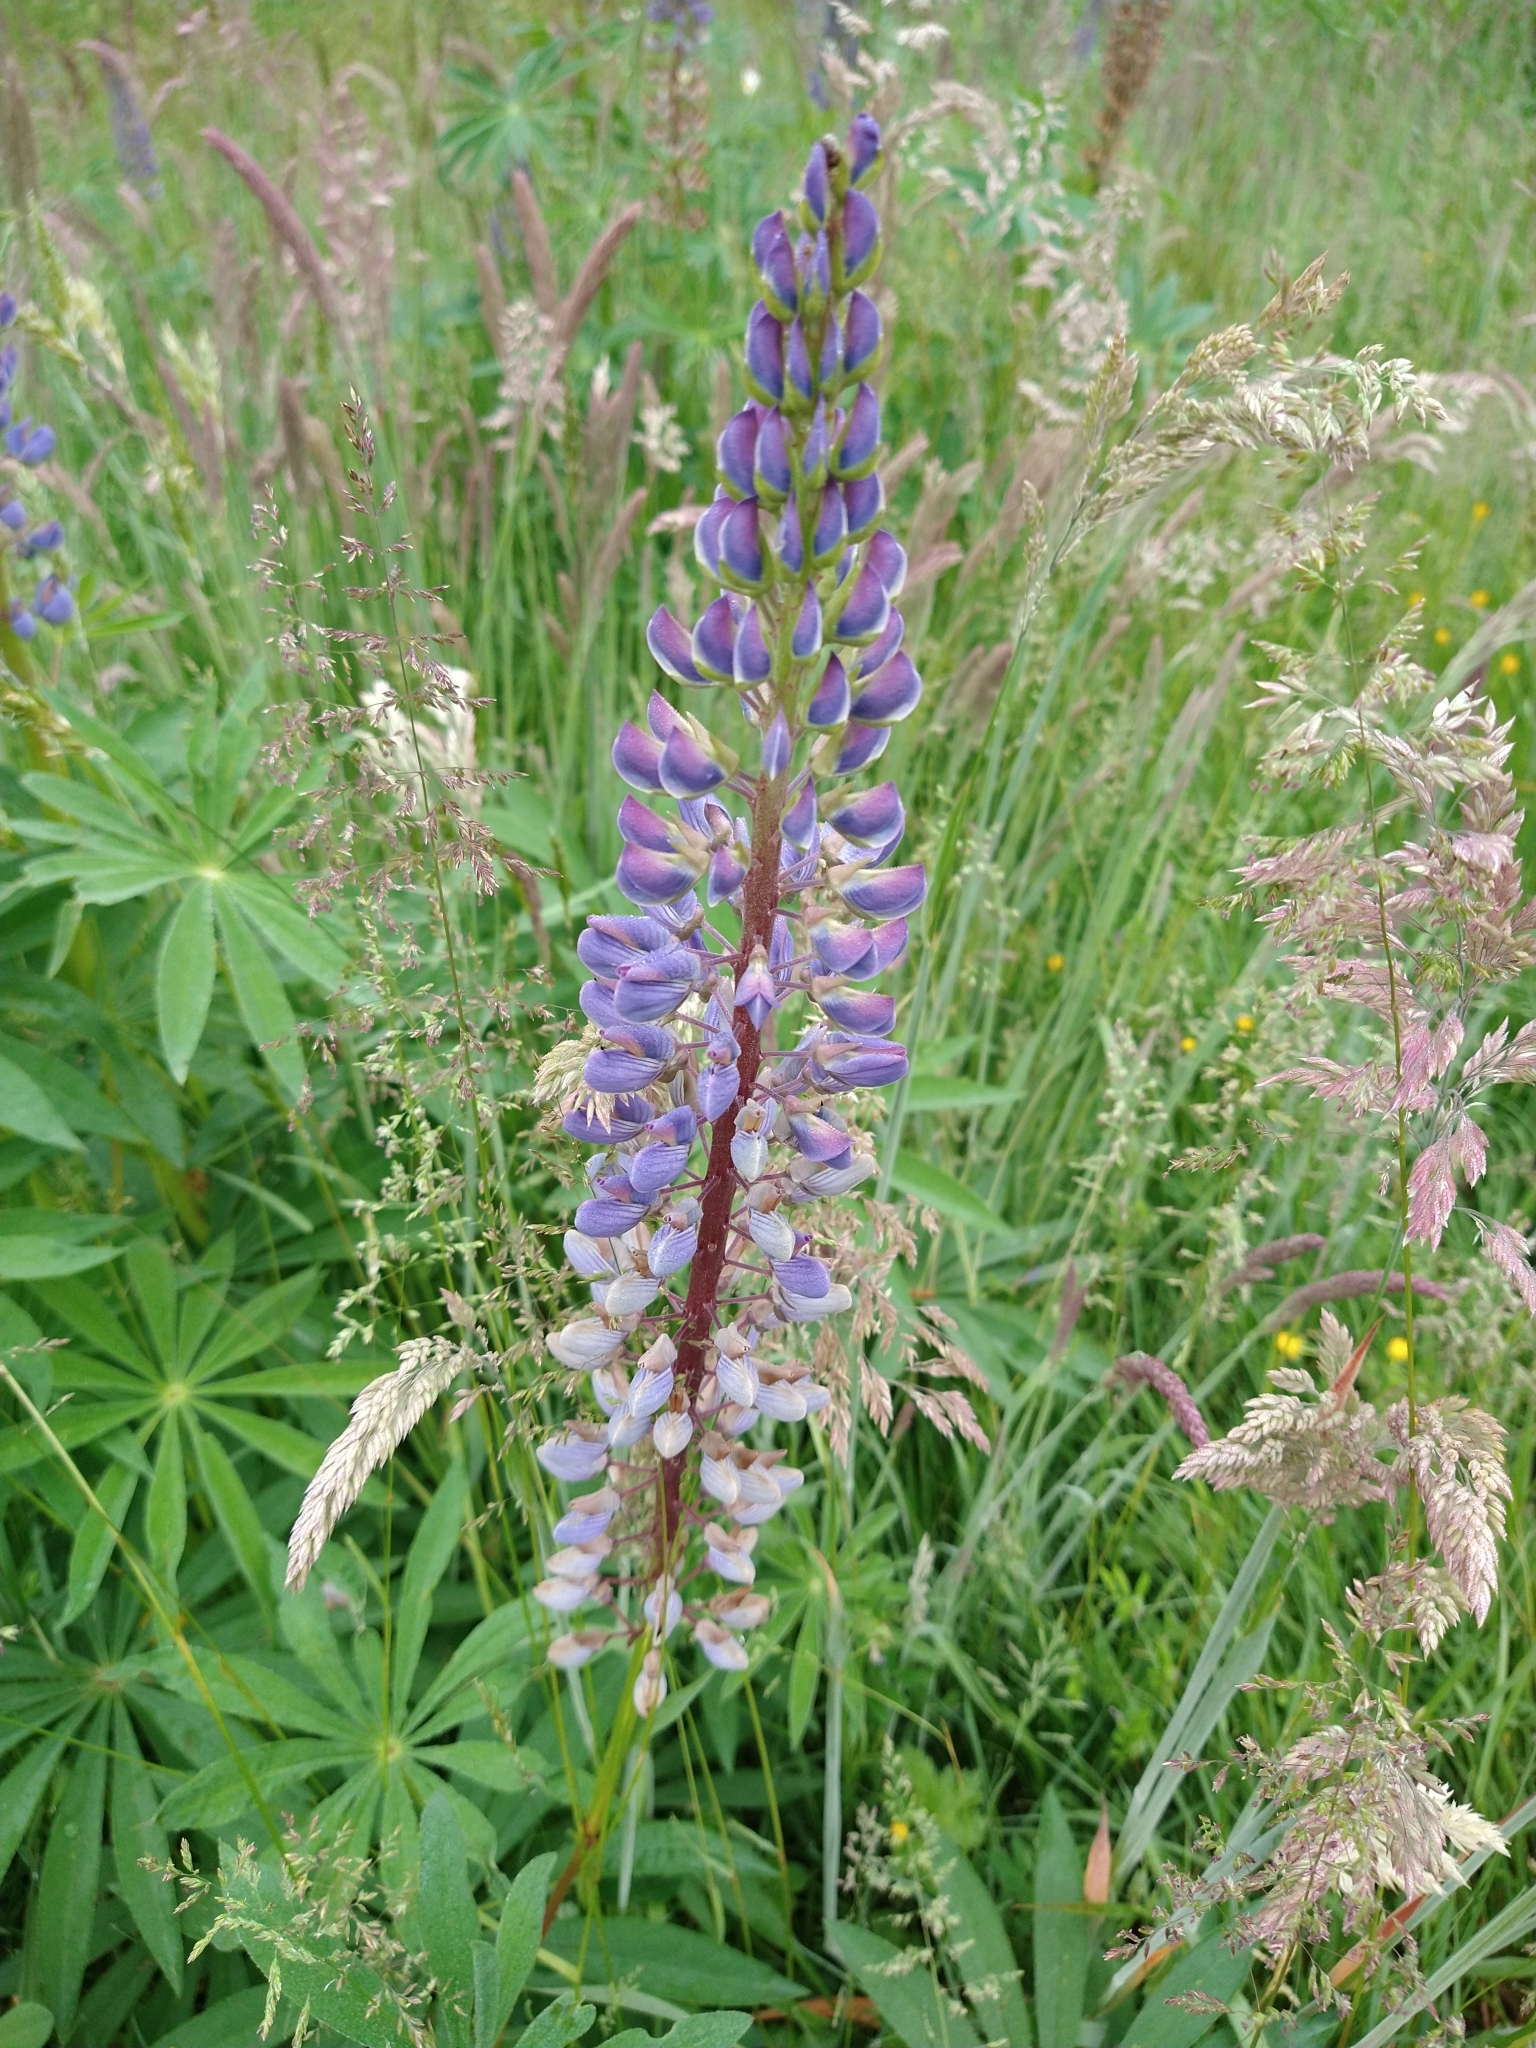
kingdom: Plantae
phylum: Tracheophyta
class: Magnoliopsida
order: Fabales
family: Fabaceae
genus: Lupinus
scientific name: Lupinus polyphyllus
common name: Garden lupin
